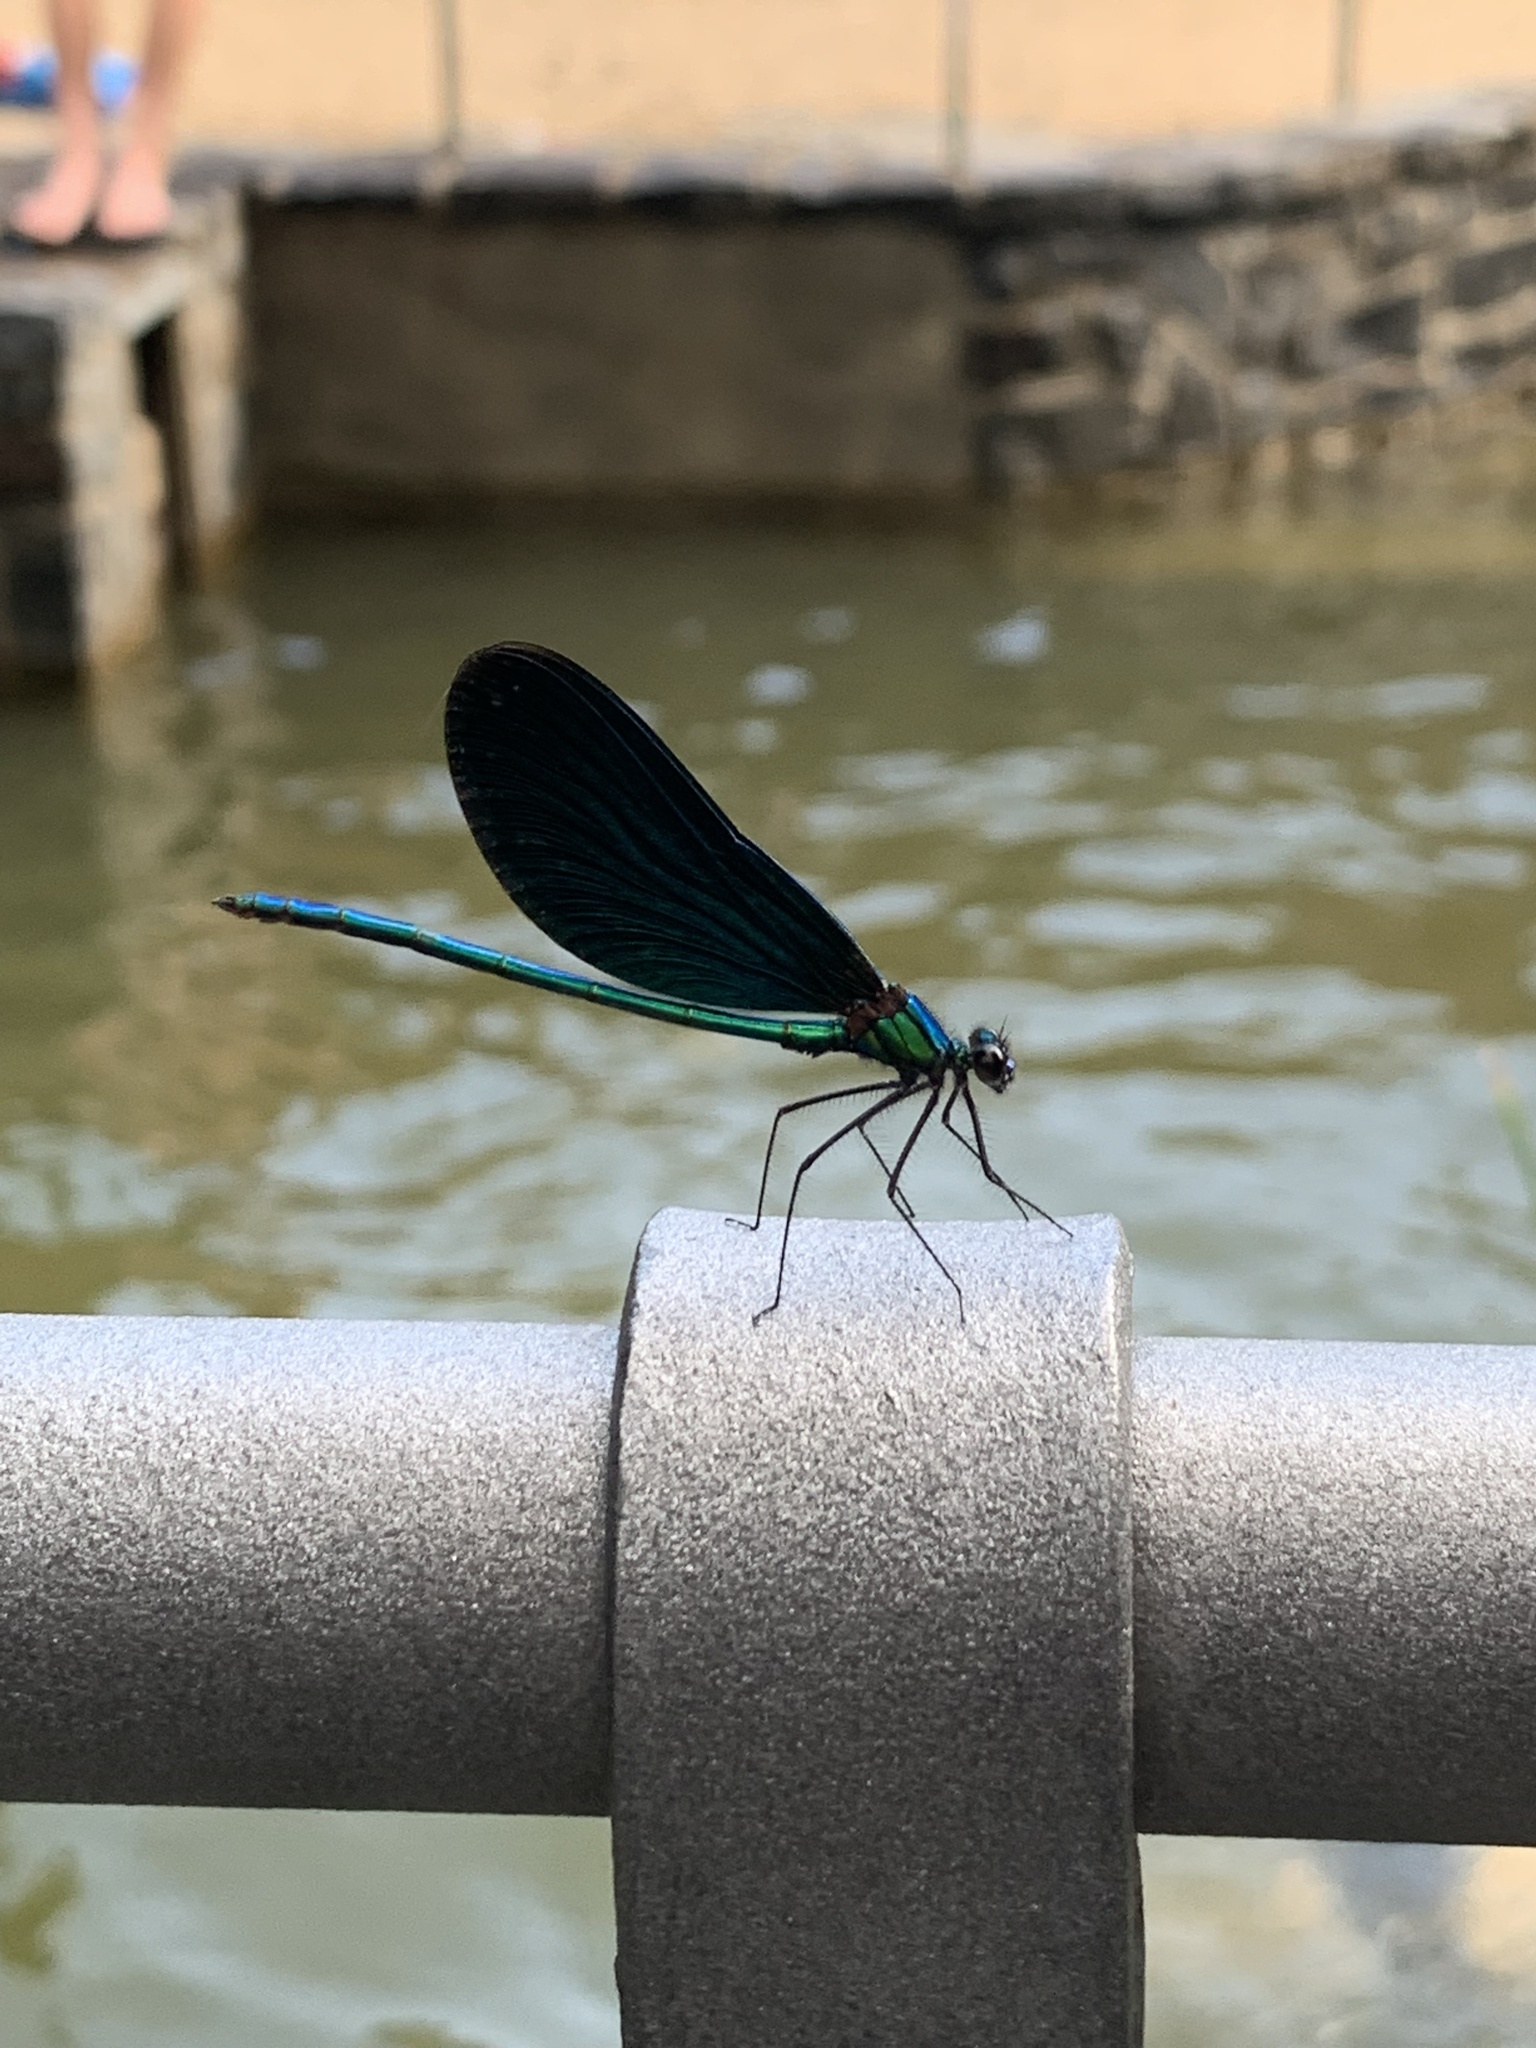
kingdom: Animalia
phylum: Arthropoda
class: Insecta
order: Odonata
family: Calopterygidae
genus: Calopteryx
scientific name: Calopteryx virgo
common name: Beautiful demoiselle
